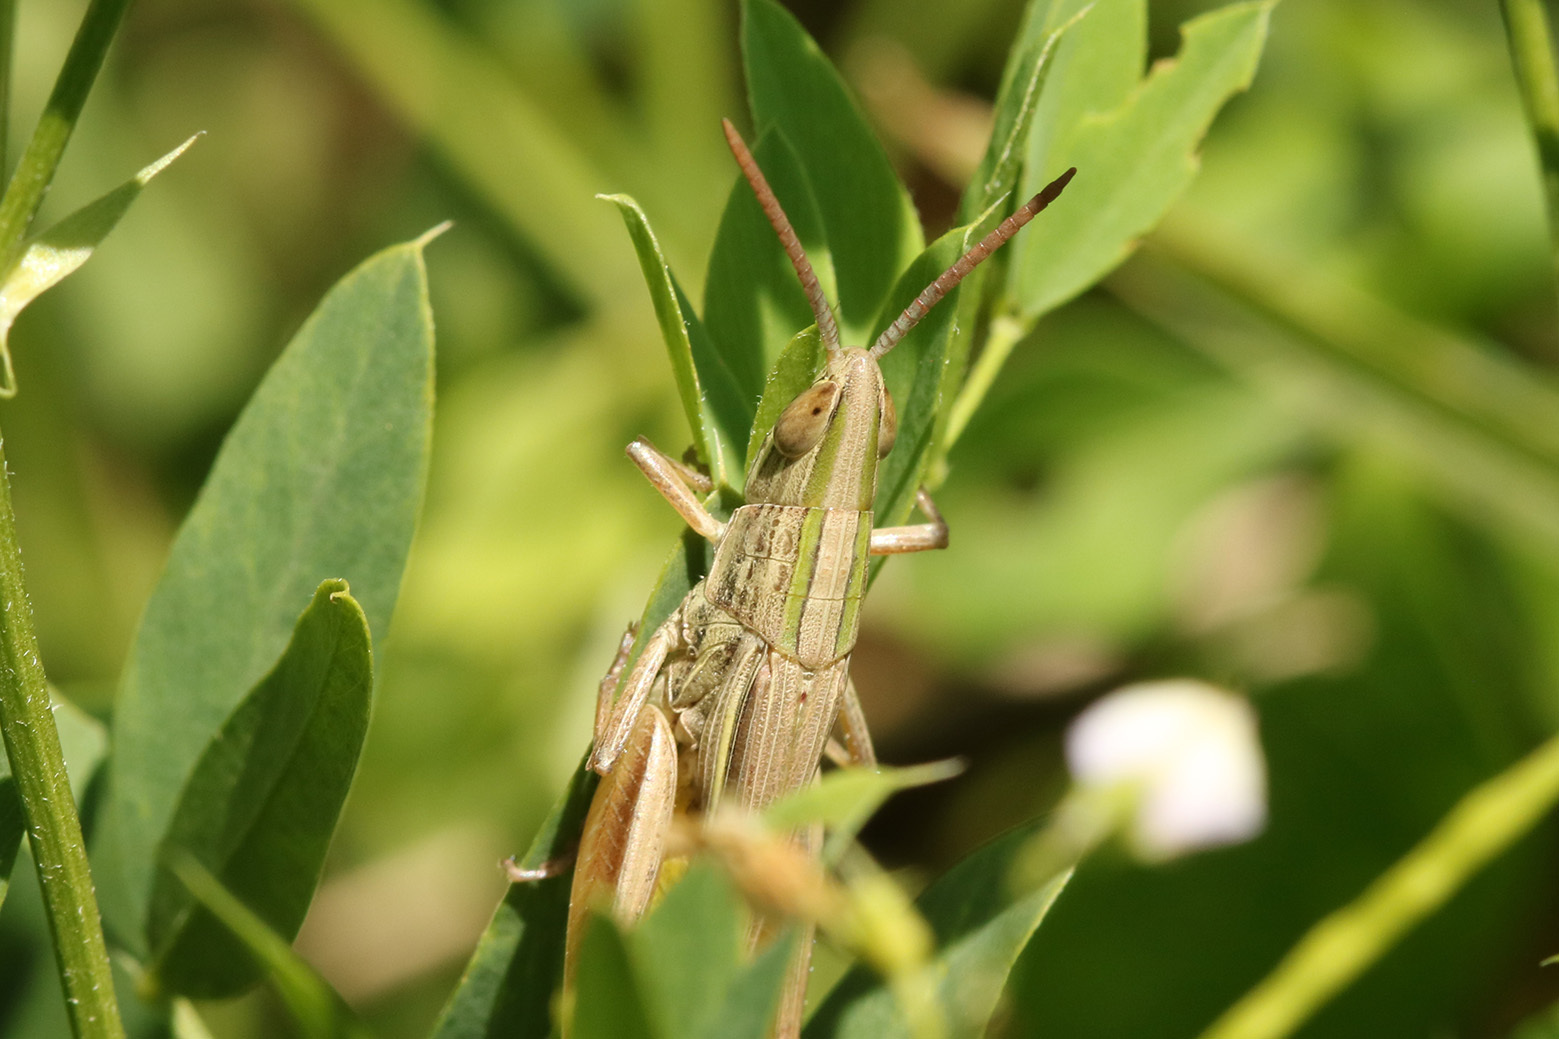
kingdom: Animalia
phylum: Arthropoda
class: Insecta
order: Orthoptera
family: Acrididae
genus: Sinipta
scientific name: Sinipta dalmani
